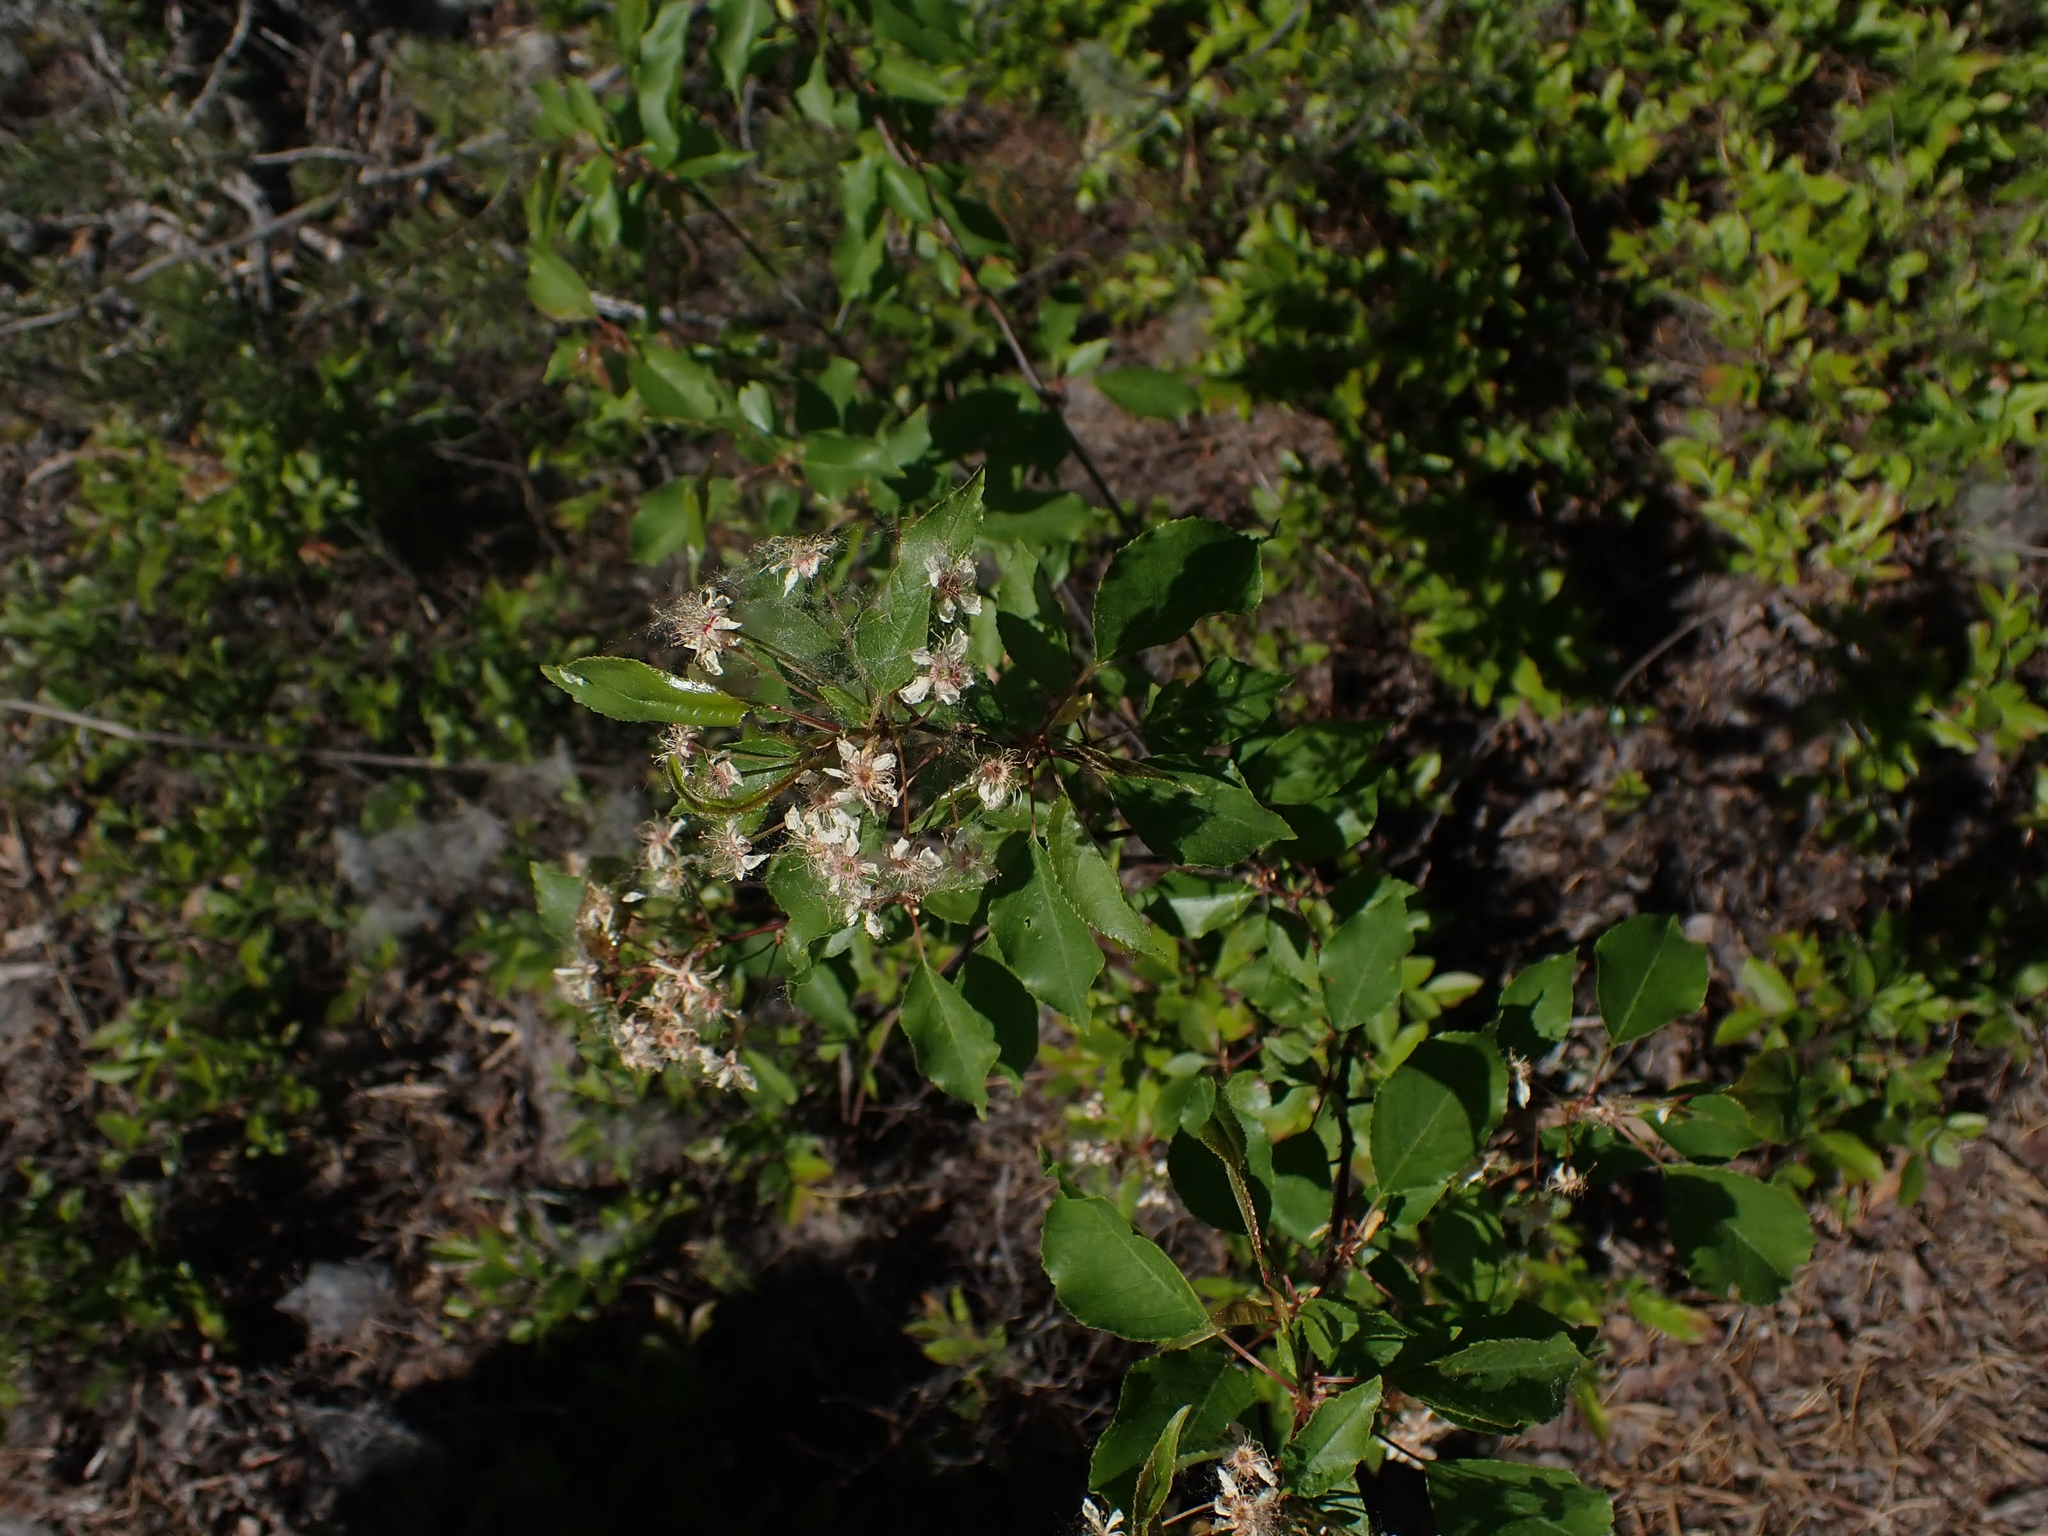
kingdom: Plantae
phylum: Tracheophyta
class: Magnoliopsida
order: Rosales
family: Rosaceae
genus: Prunus
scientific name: Prunus pensylvanica
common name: Pin cherry
